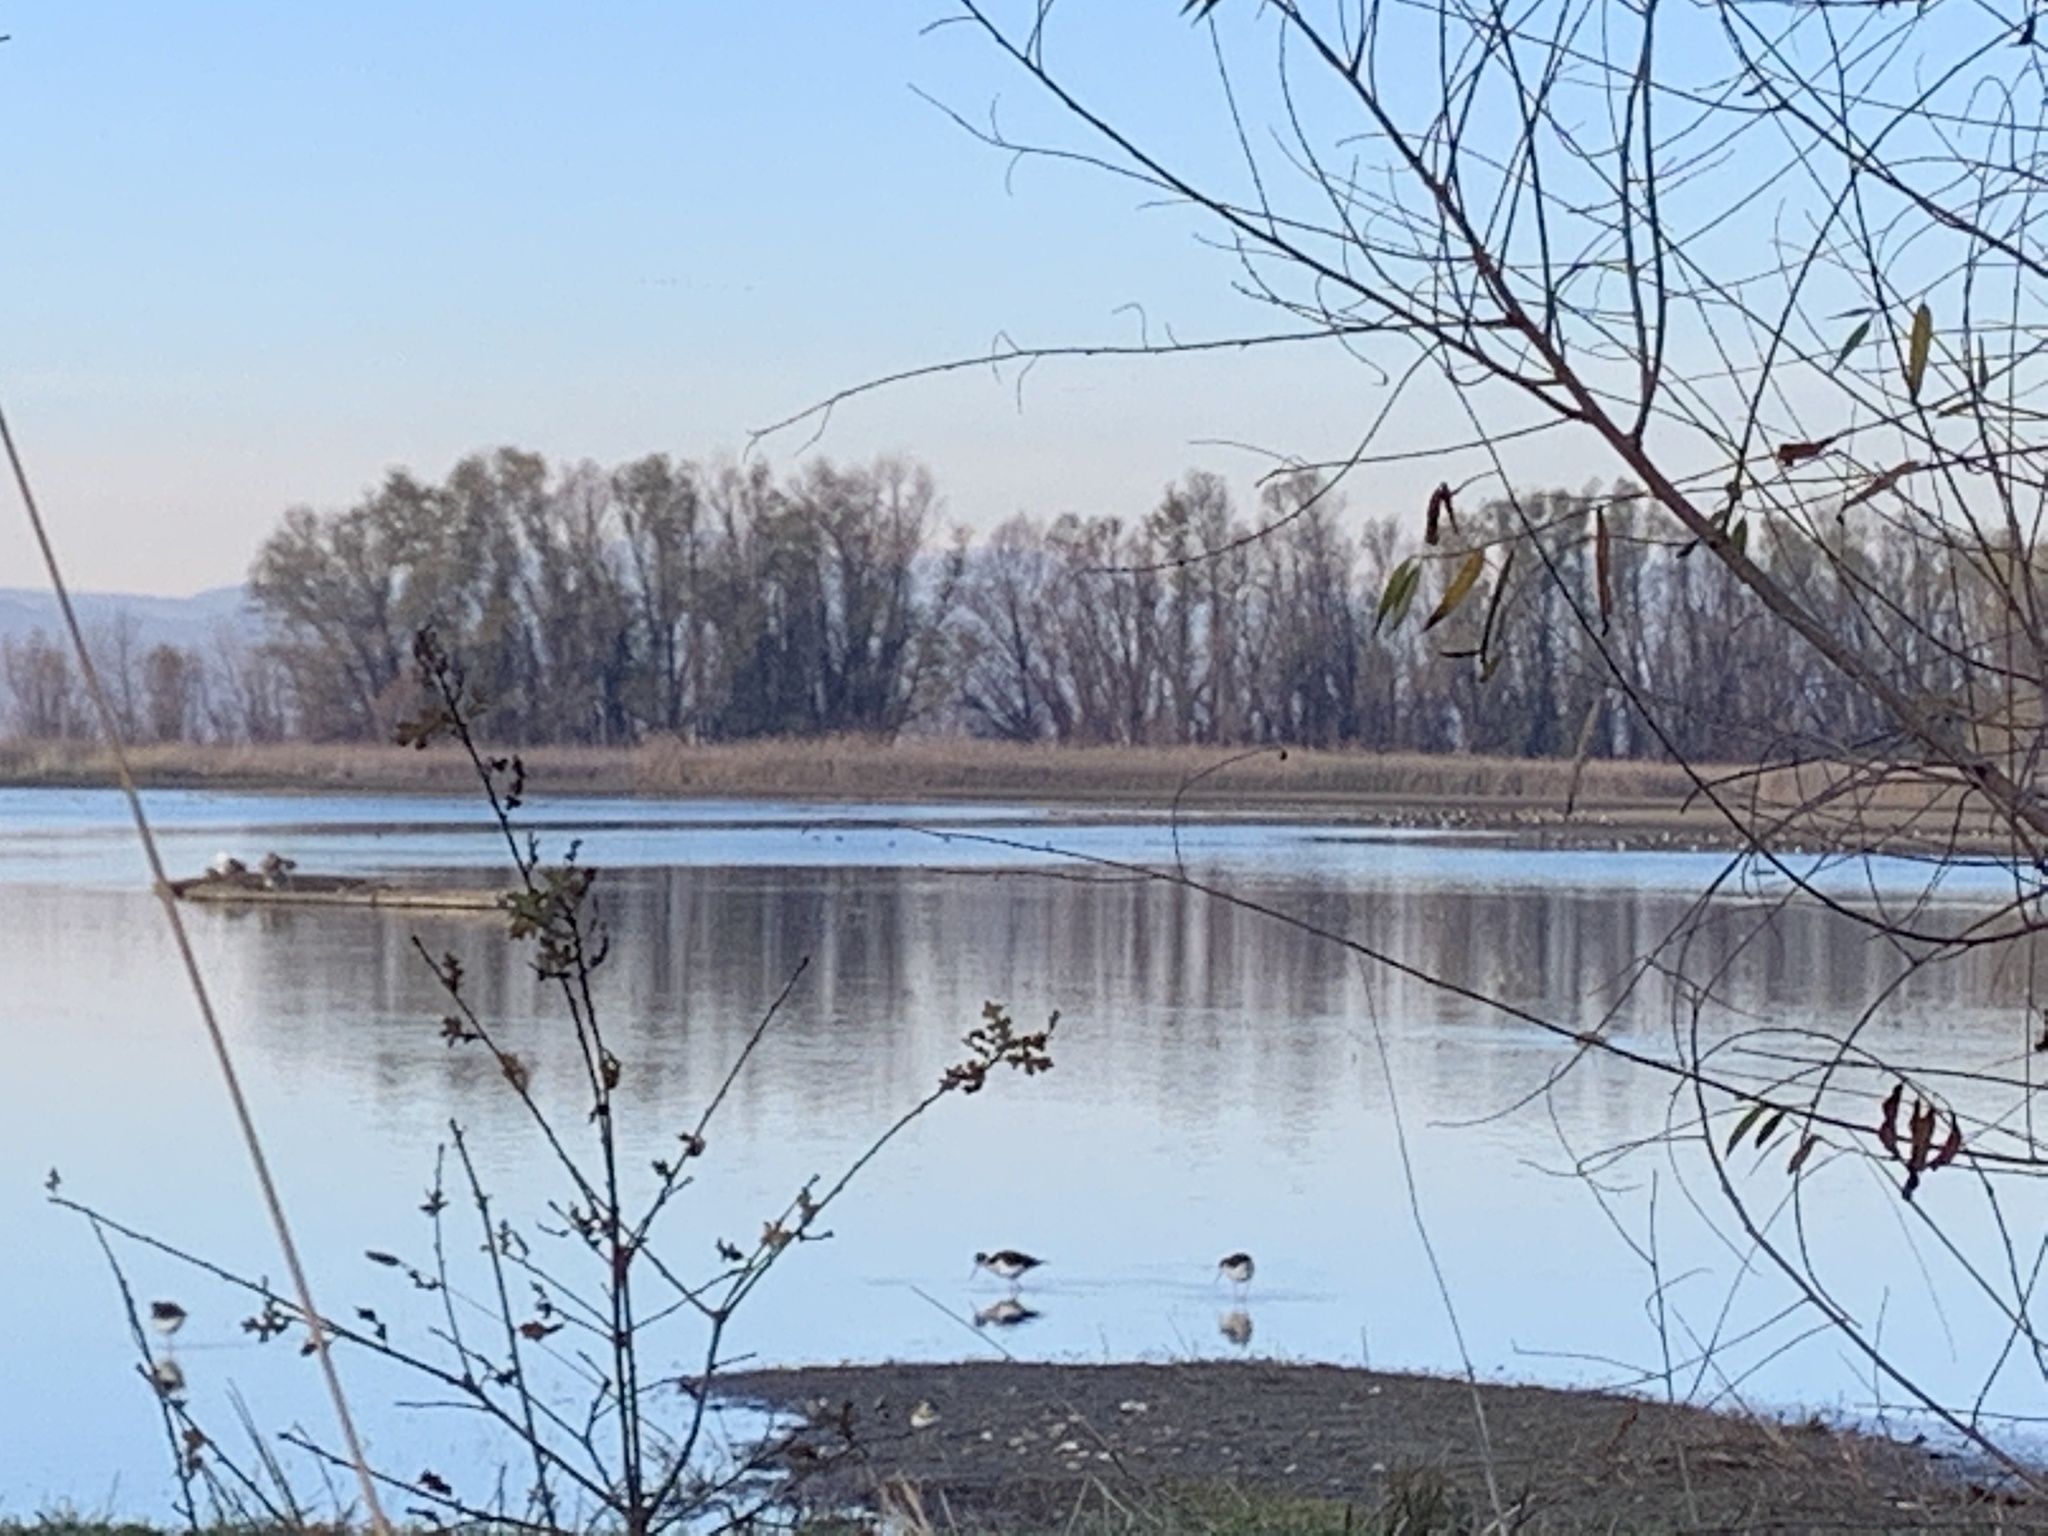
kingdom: Animalia
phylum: Chordata
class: Aves
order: Charadriiformes
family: Recurvirostridae
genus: Himantopus
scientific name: Himantopus mexicanus
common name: Black-necked stilt
